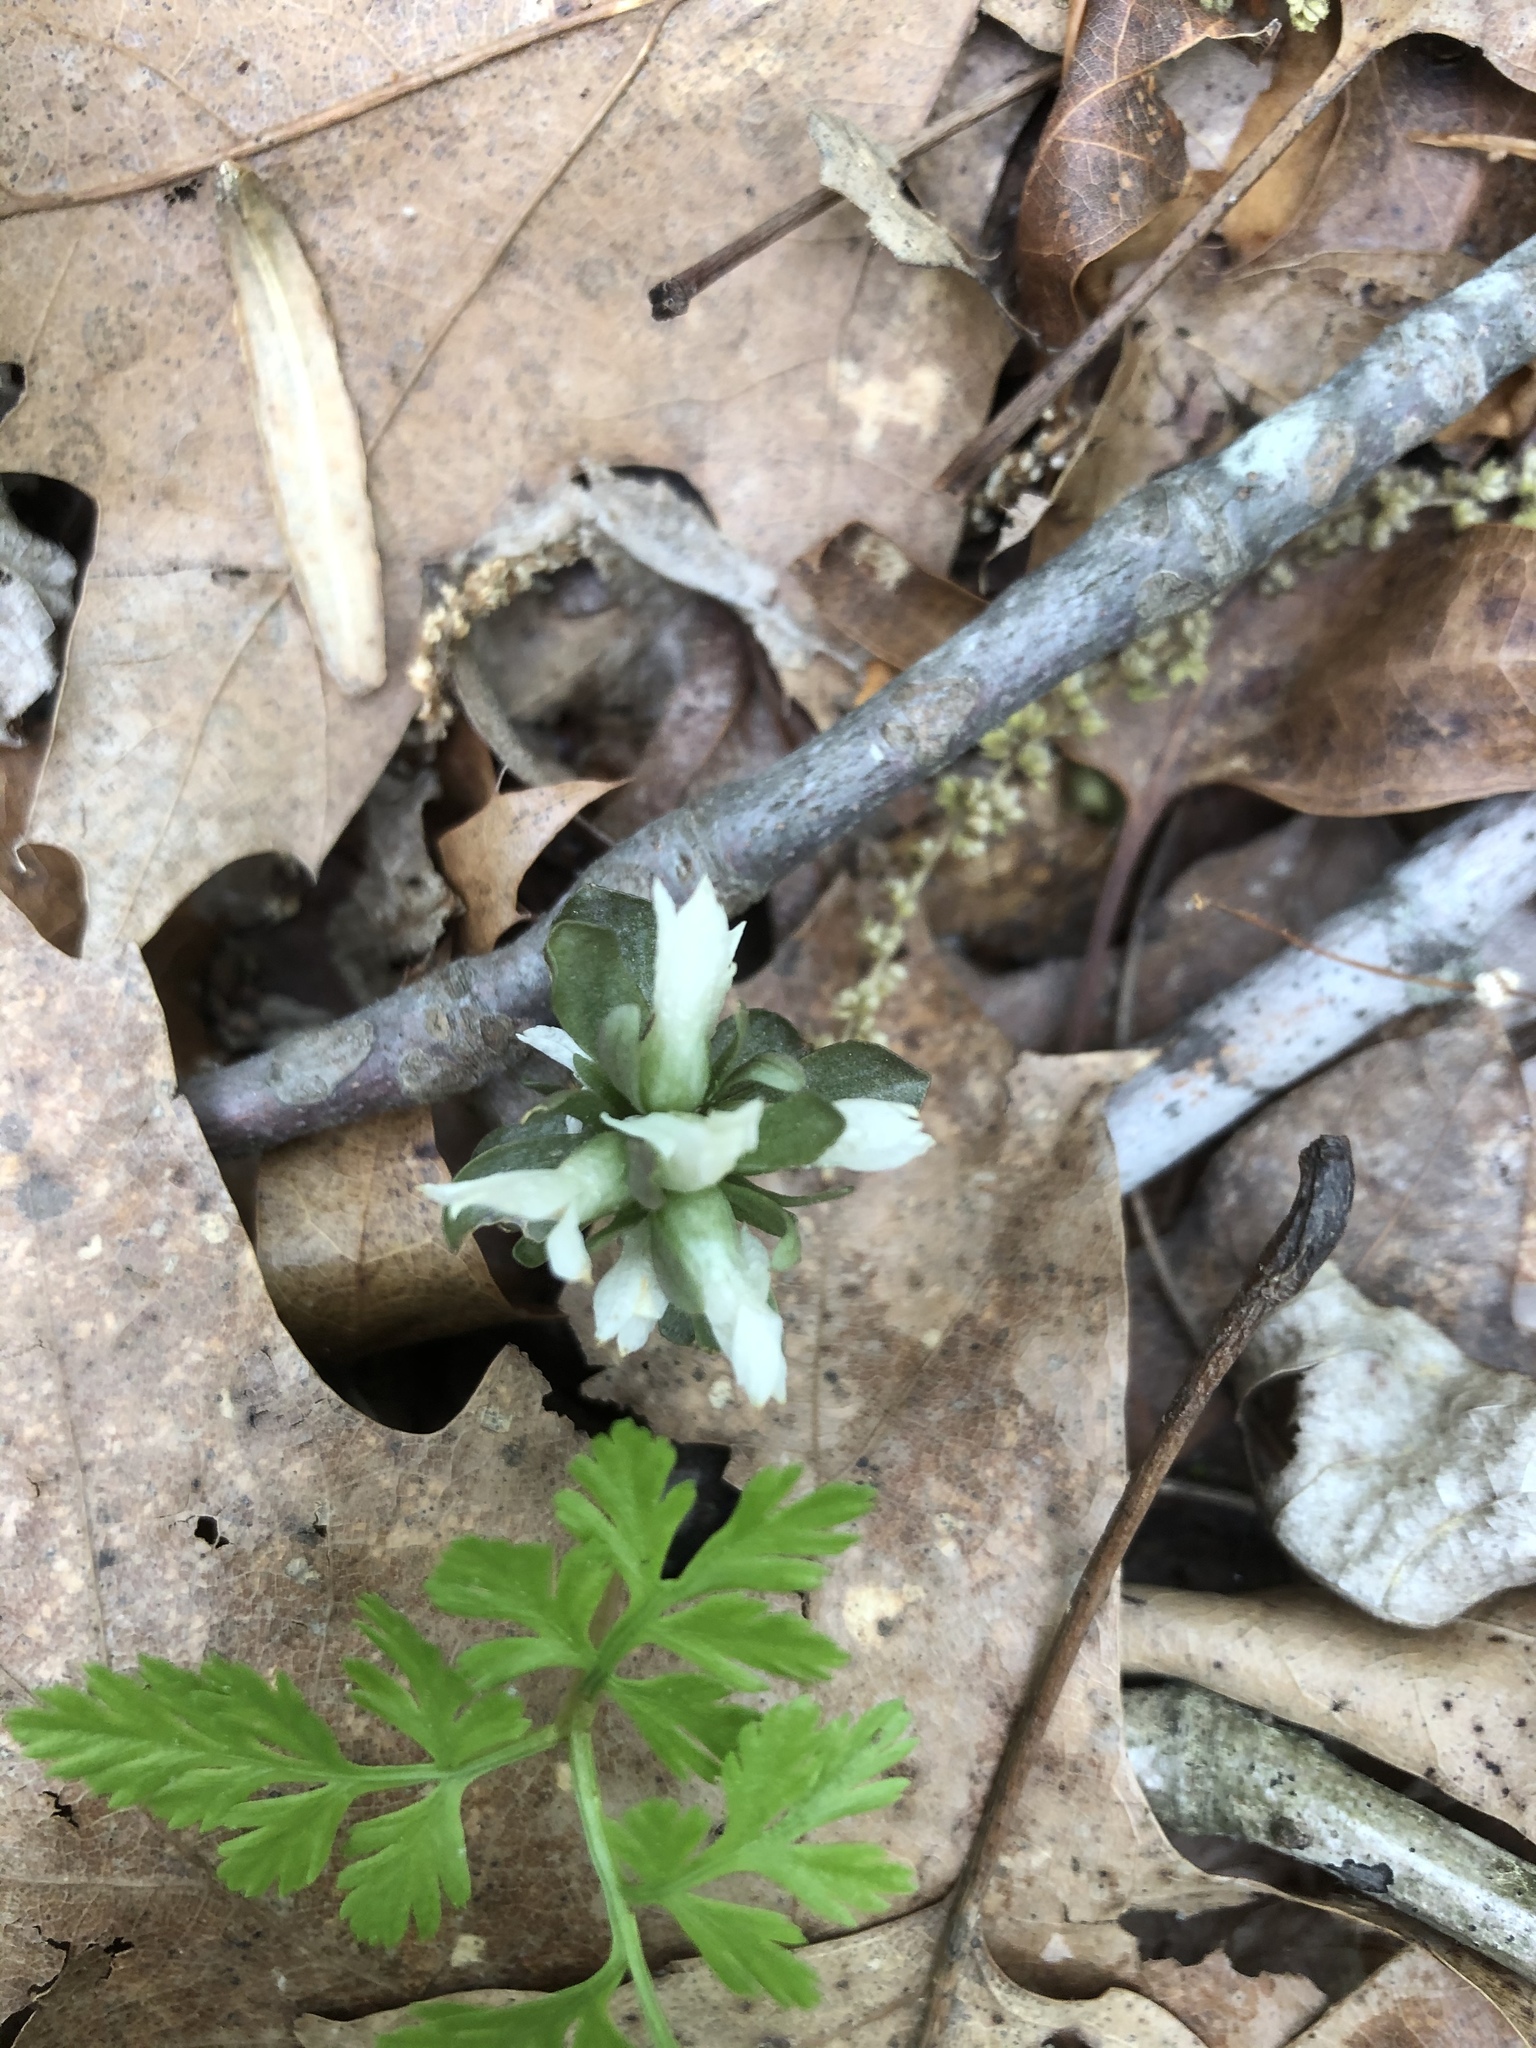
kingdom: Plantae
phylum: Tracheophyta
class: Magnoliopsida
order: Gentianales
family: Gentianaceae
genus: Obolaria
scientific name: Obolaria virginica
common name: Pennywort
